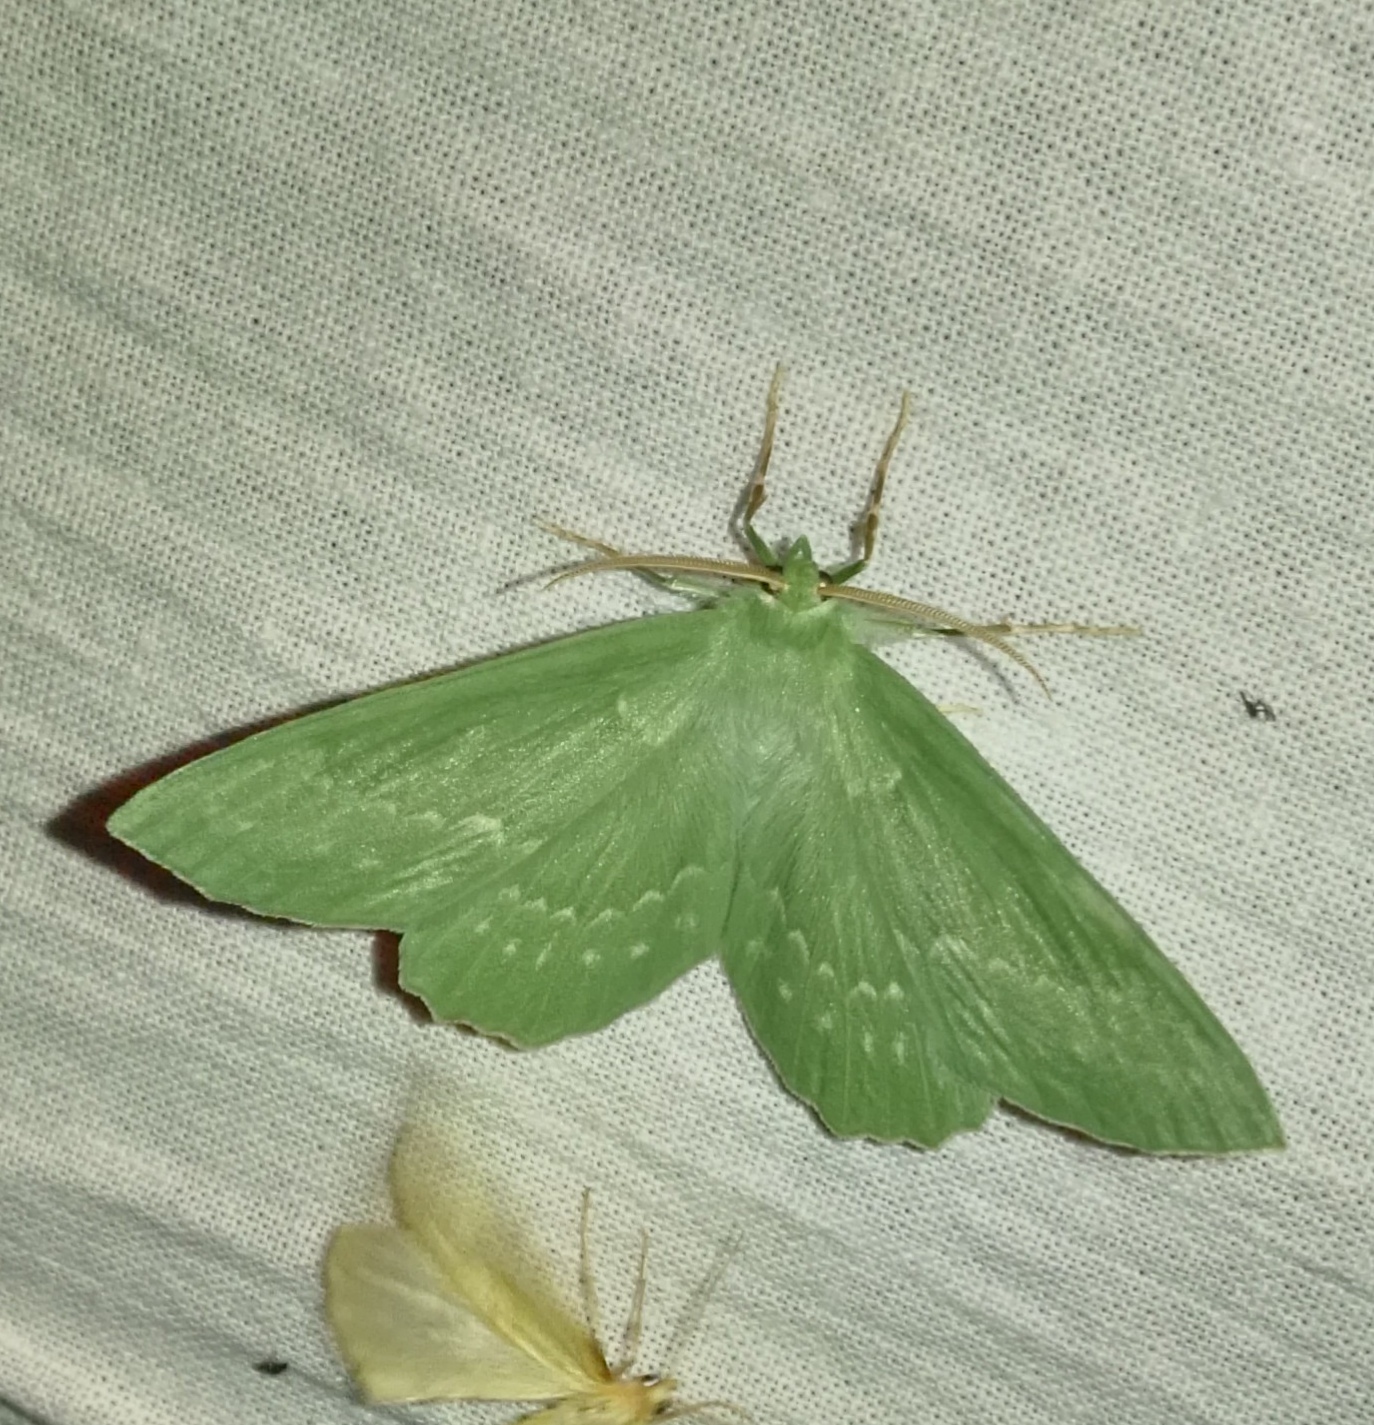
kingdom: Animalia
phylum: Arthropoda
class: Insecta
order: Lepidoptera
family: Geometridae
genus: Geometra
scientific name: Geometra papilionaria
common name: Large emerald
